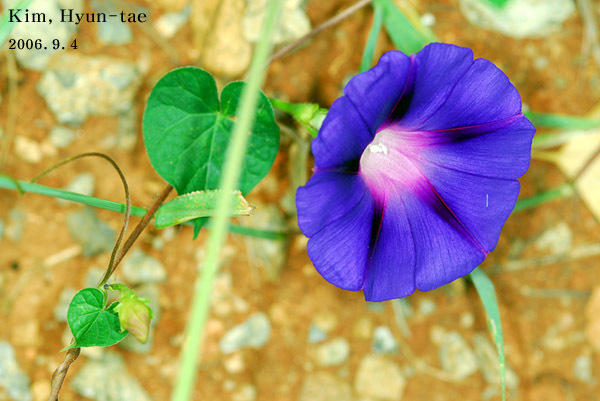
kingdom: Plantae
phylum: Tracheophyta
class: Magnoliopsida
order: Solanales
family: Convolvulaceae
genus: Ipomoea
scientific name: Ipomoea purpurea
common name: Common morning-glory
